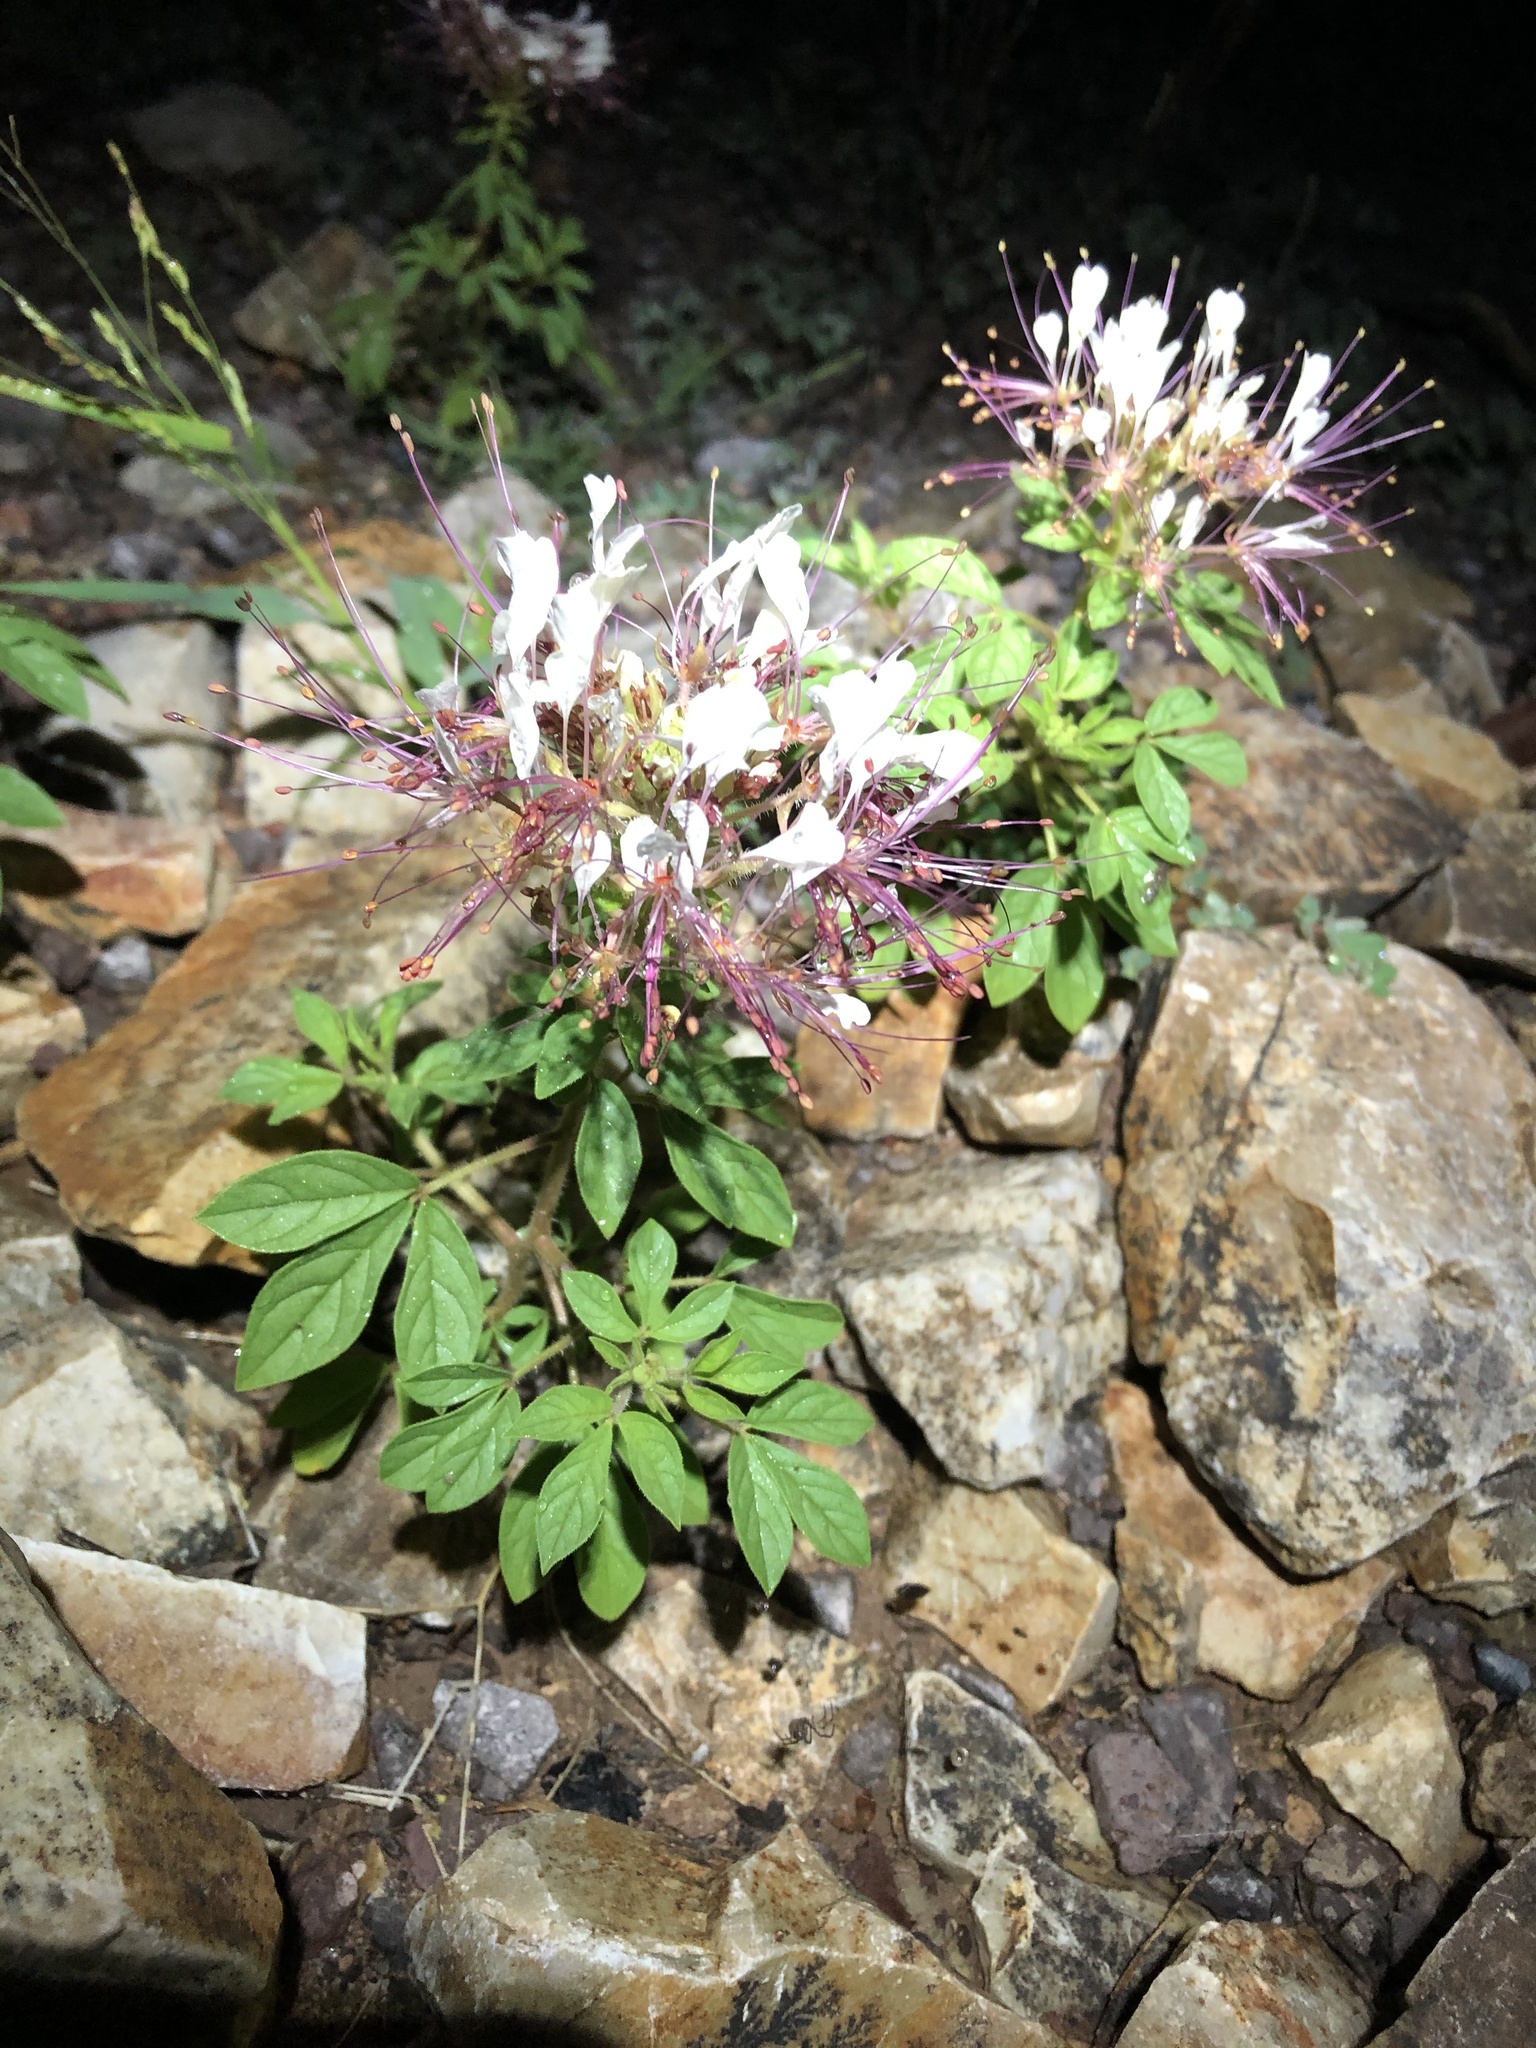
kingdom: Plantae
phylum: Tracheophyta
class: Magnoliopsida
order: Brassicales
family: Cleomaceae
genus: Polanisia
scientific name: Polanisia dodecandra
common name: Clammyweed
